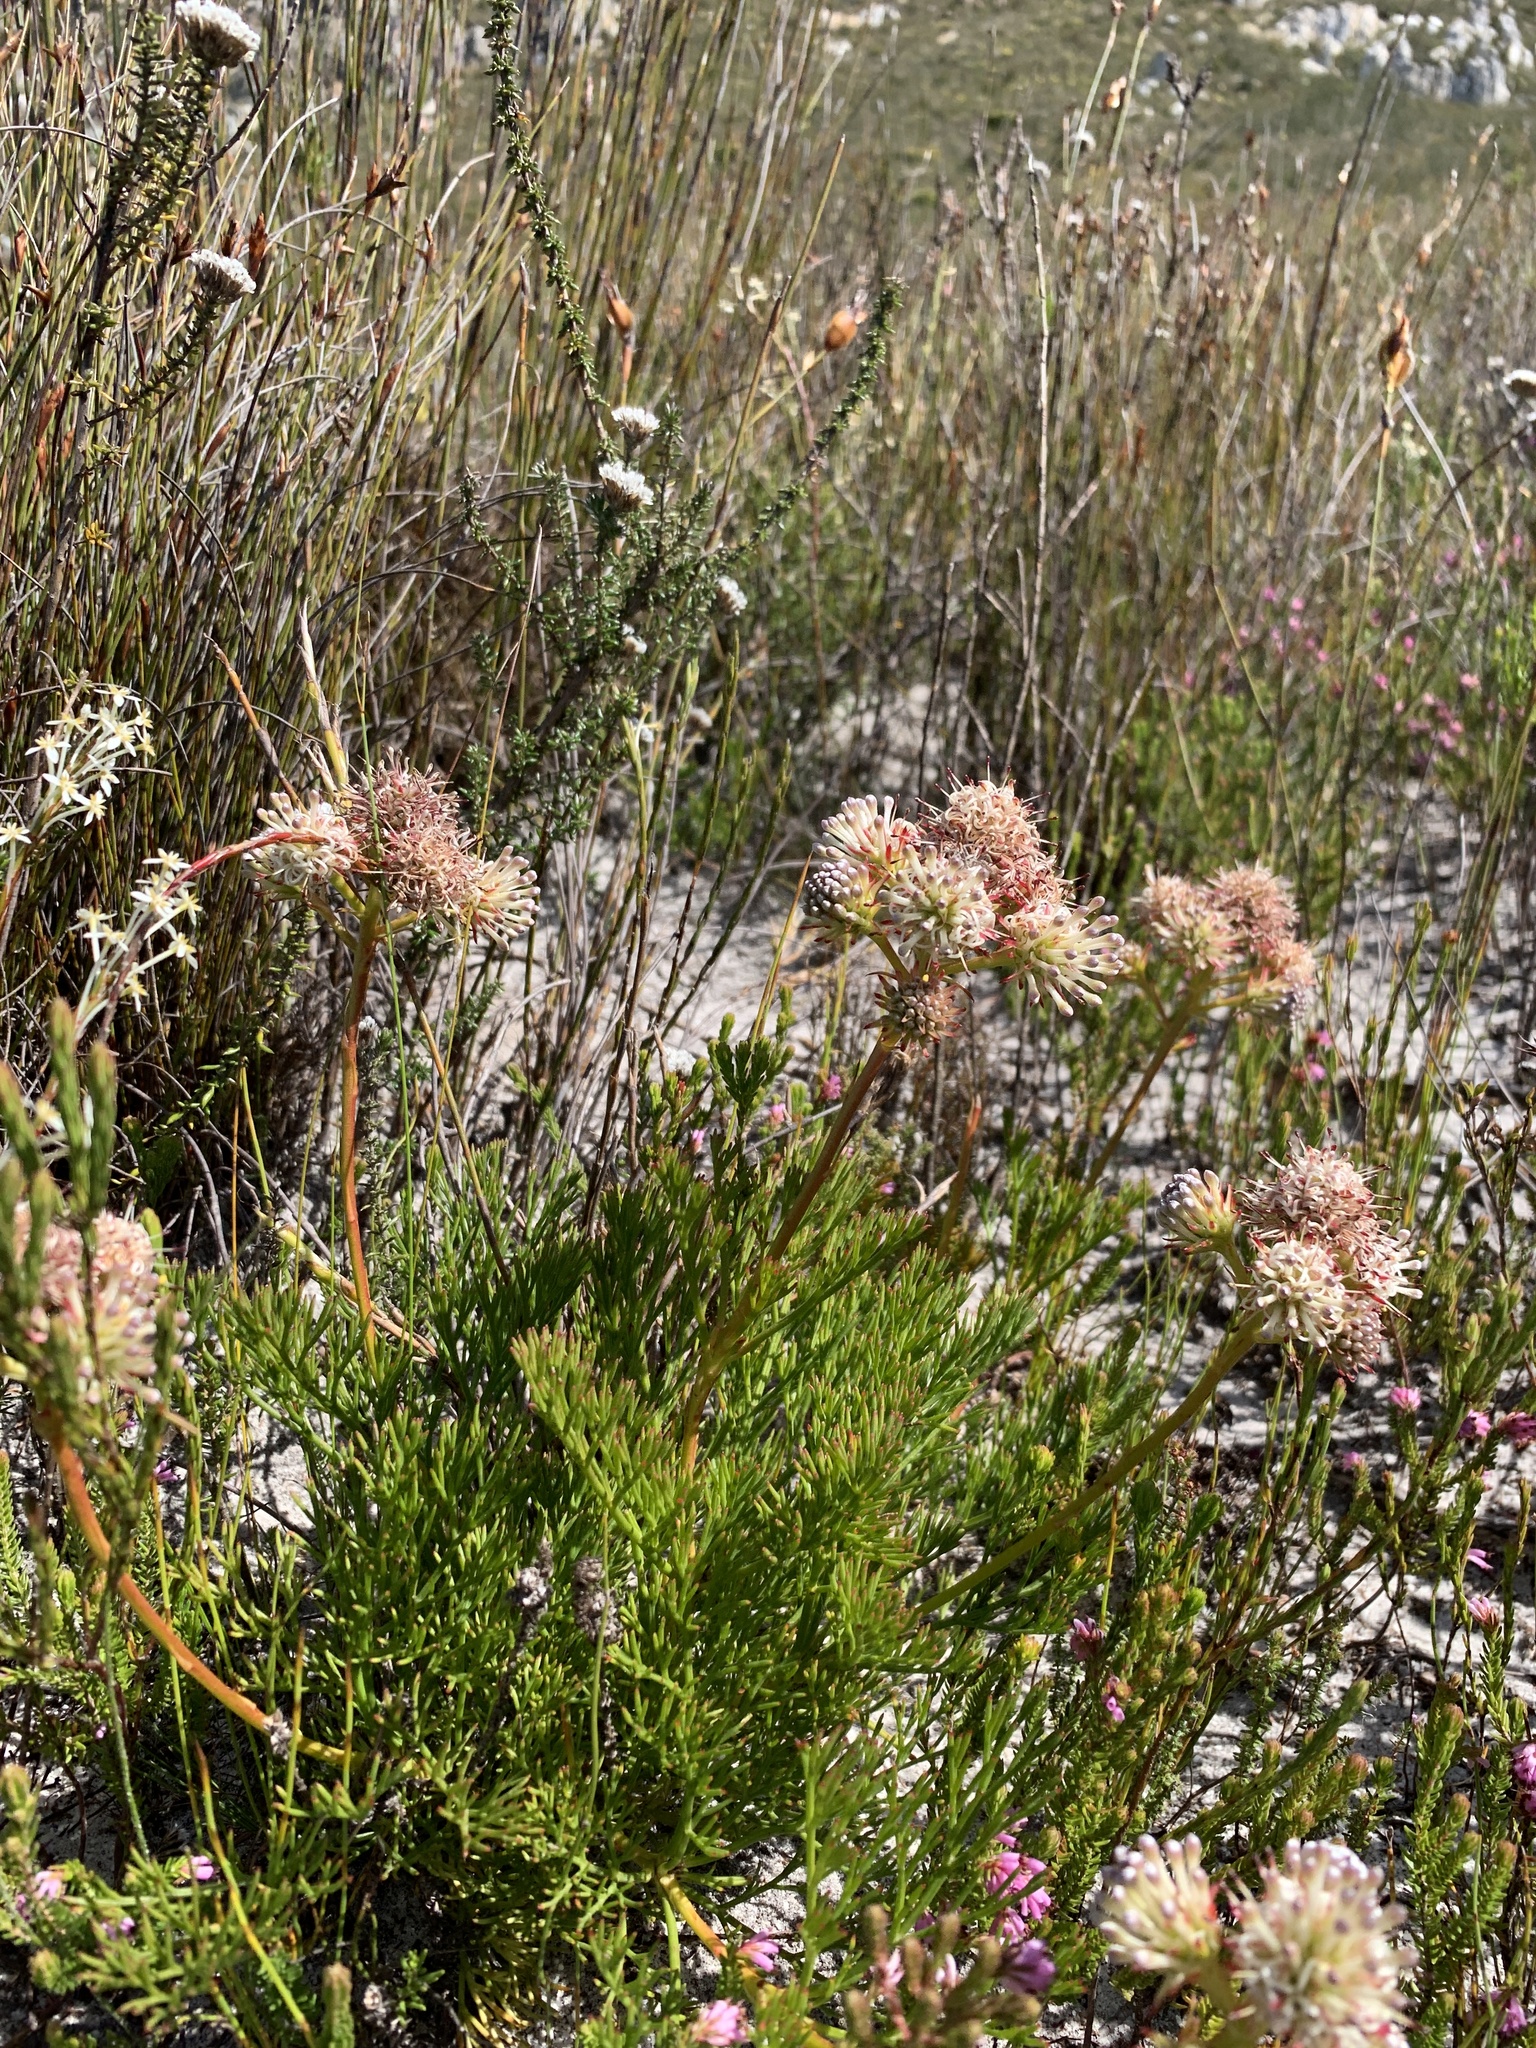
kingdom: Plantae
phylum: Tracheophyta
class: Magnoliopsida
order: Proteales
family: Proteaceae
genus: Serruria
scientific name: Serruria elongata
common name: Long-stalk spiderhead
